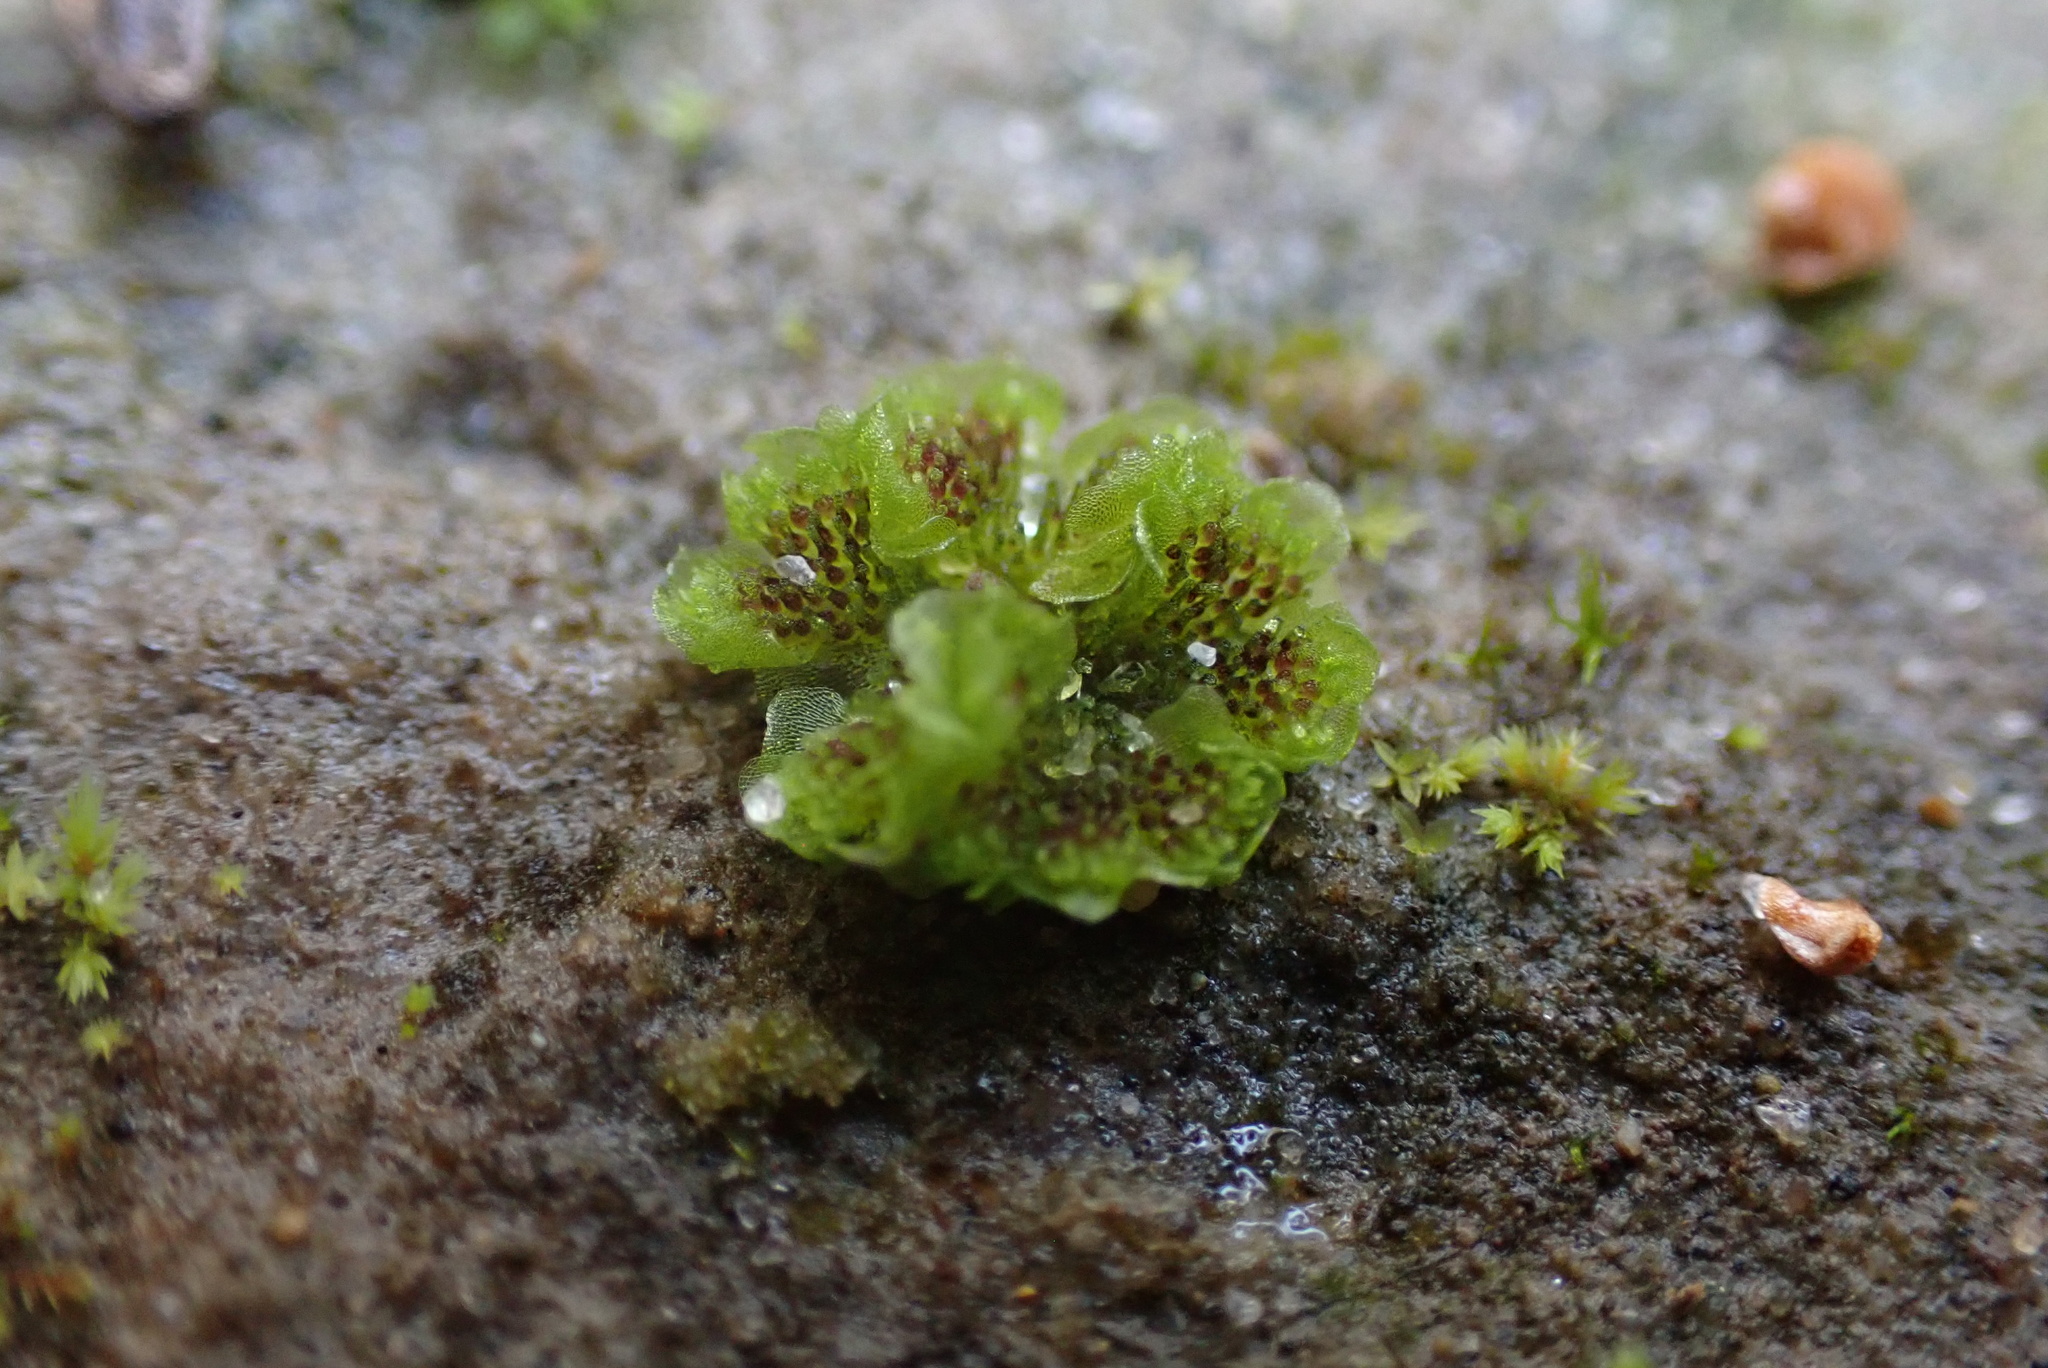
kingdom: Plantae
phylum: Marchantiophyta
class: Marchantiopsida
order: Sphaerocarpales
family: Sphaerocarpaceae
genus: Sphaerocarpos
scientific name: Sphaerocarpos texanus
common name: Texas balloonwort
